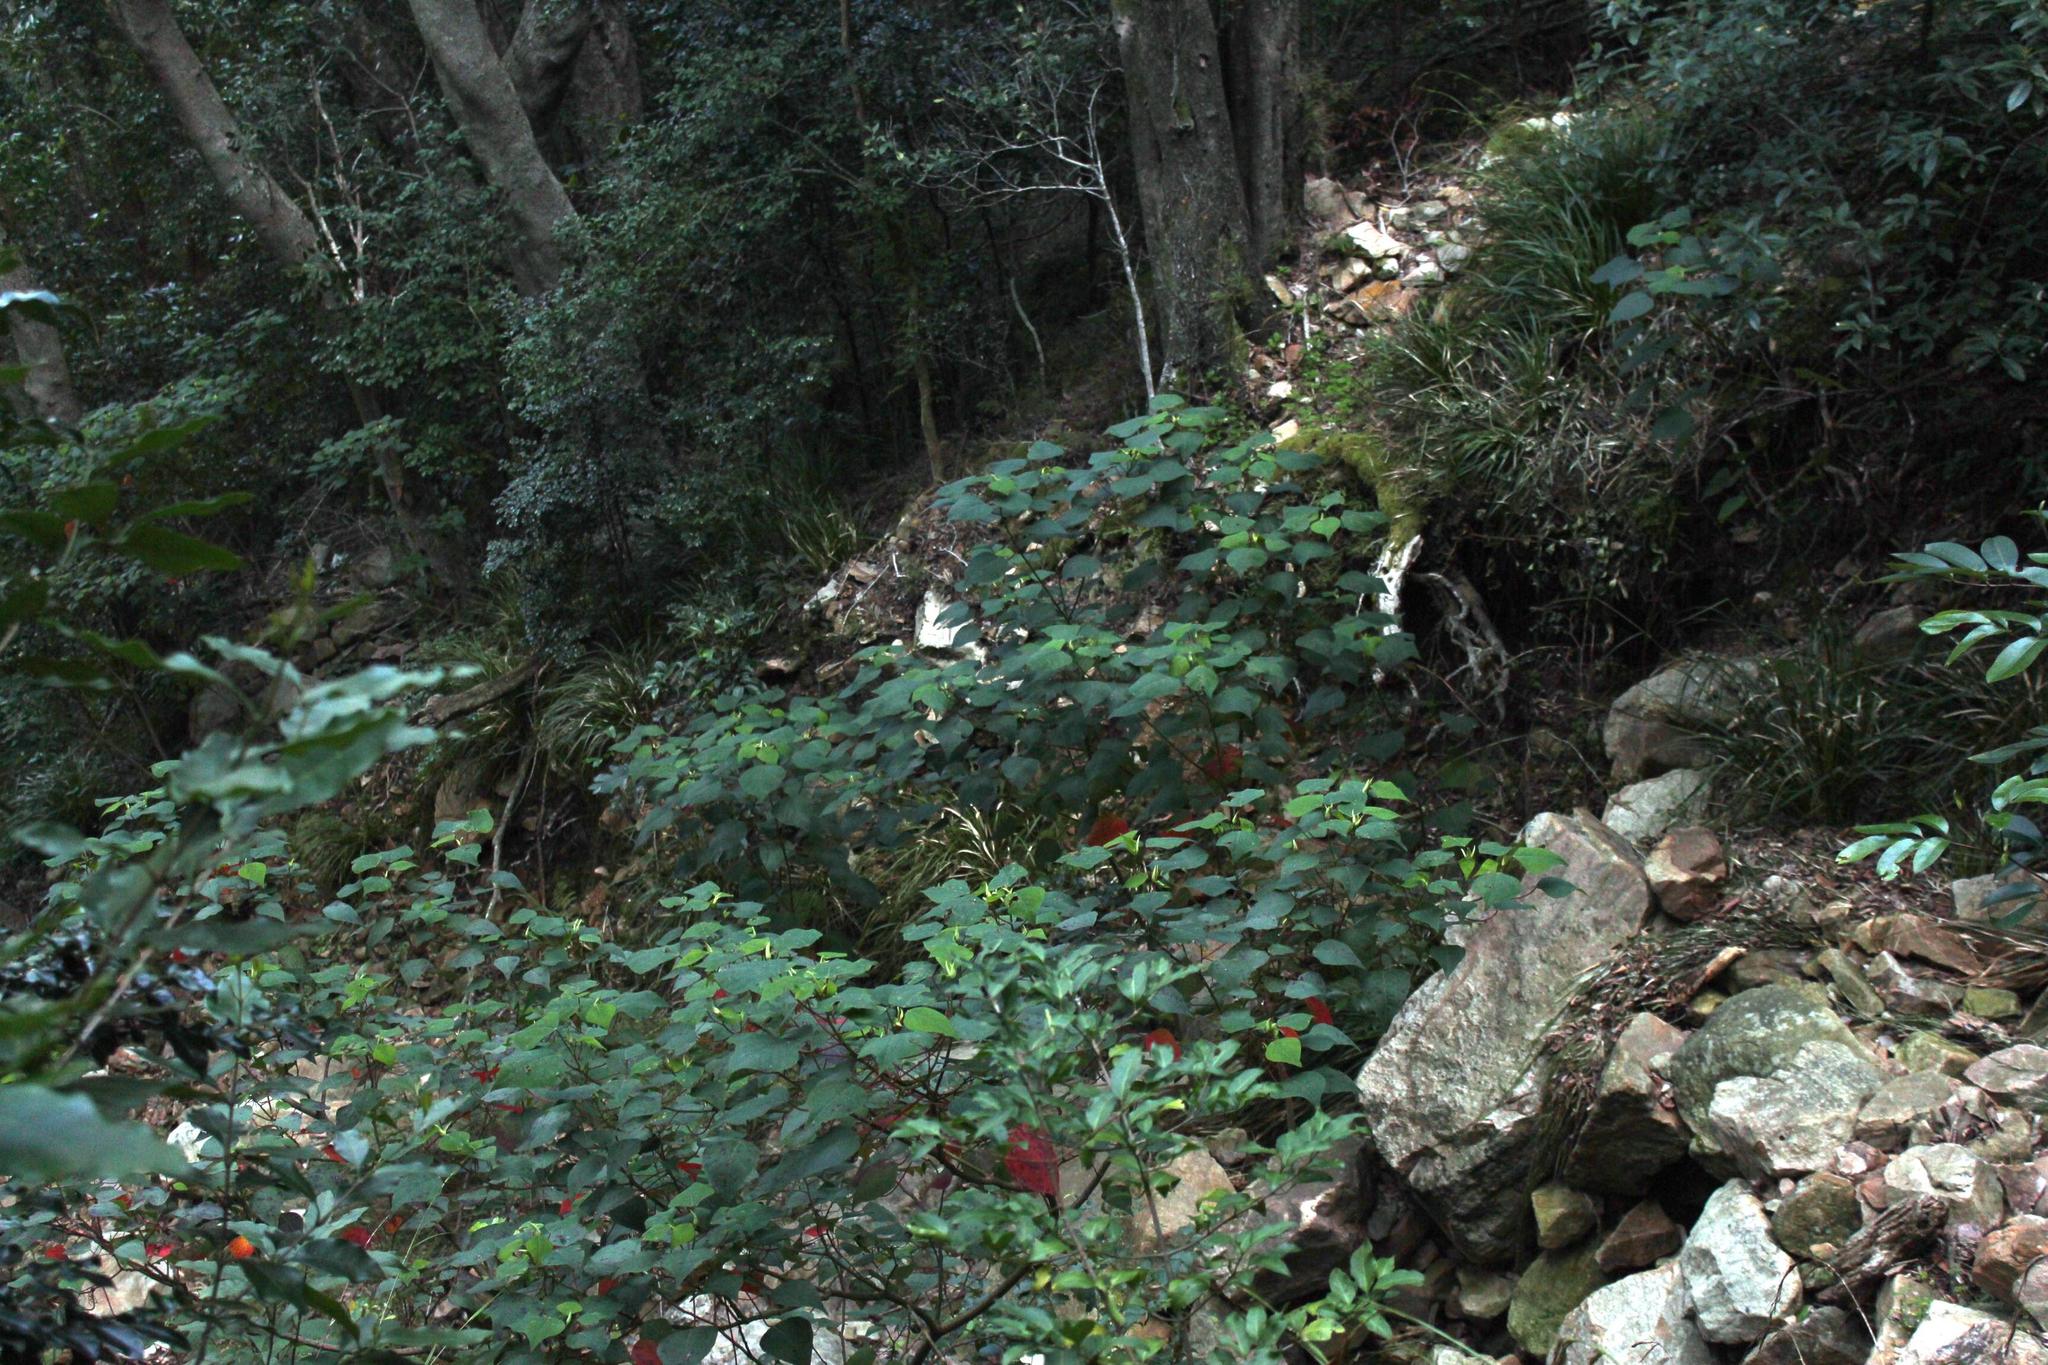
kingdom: Plantae
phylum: Tracheophyta
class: Magnoliopsida
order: Malpighiales
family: Euphorbiaceae
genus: Homalanthus
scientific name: Homalanthus populifolius
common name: Queensland poplar
